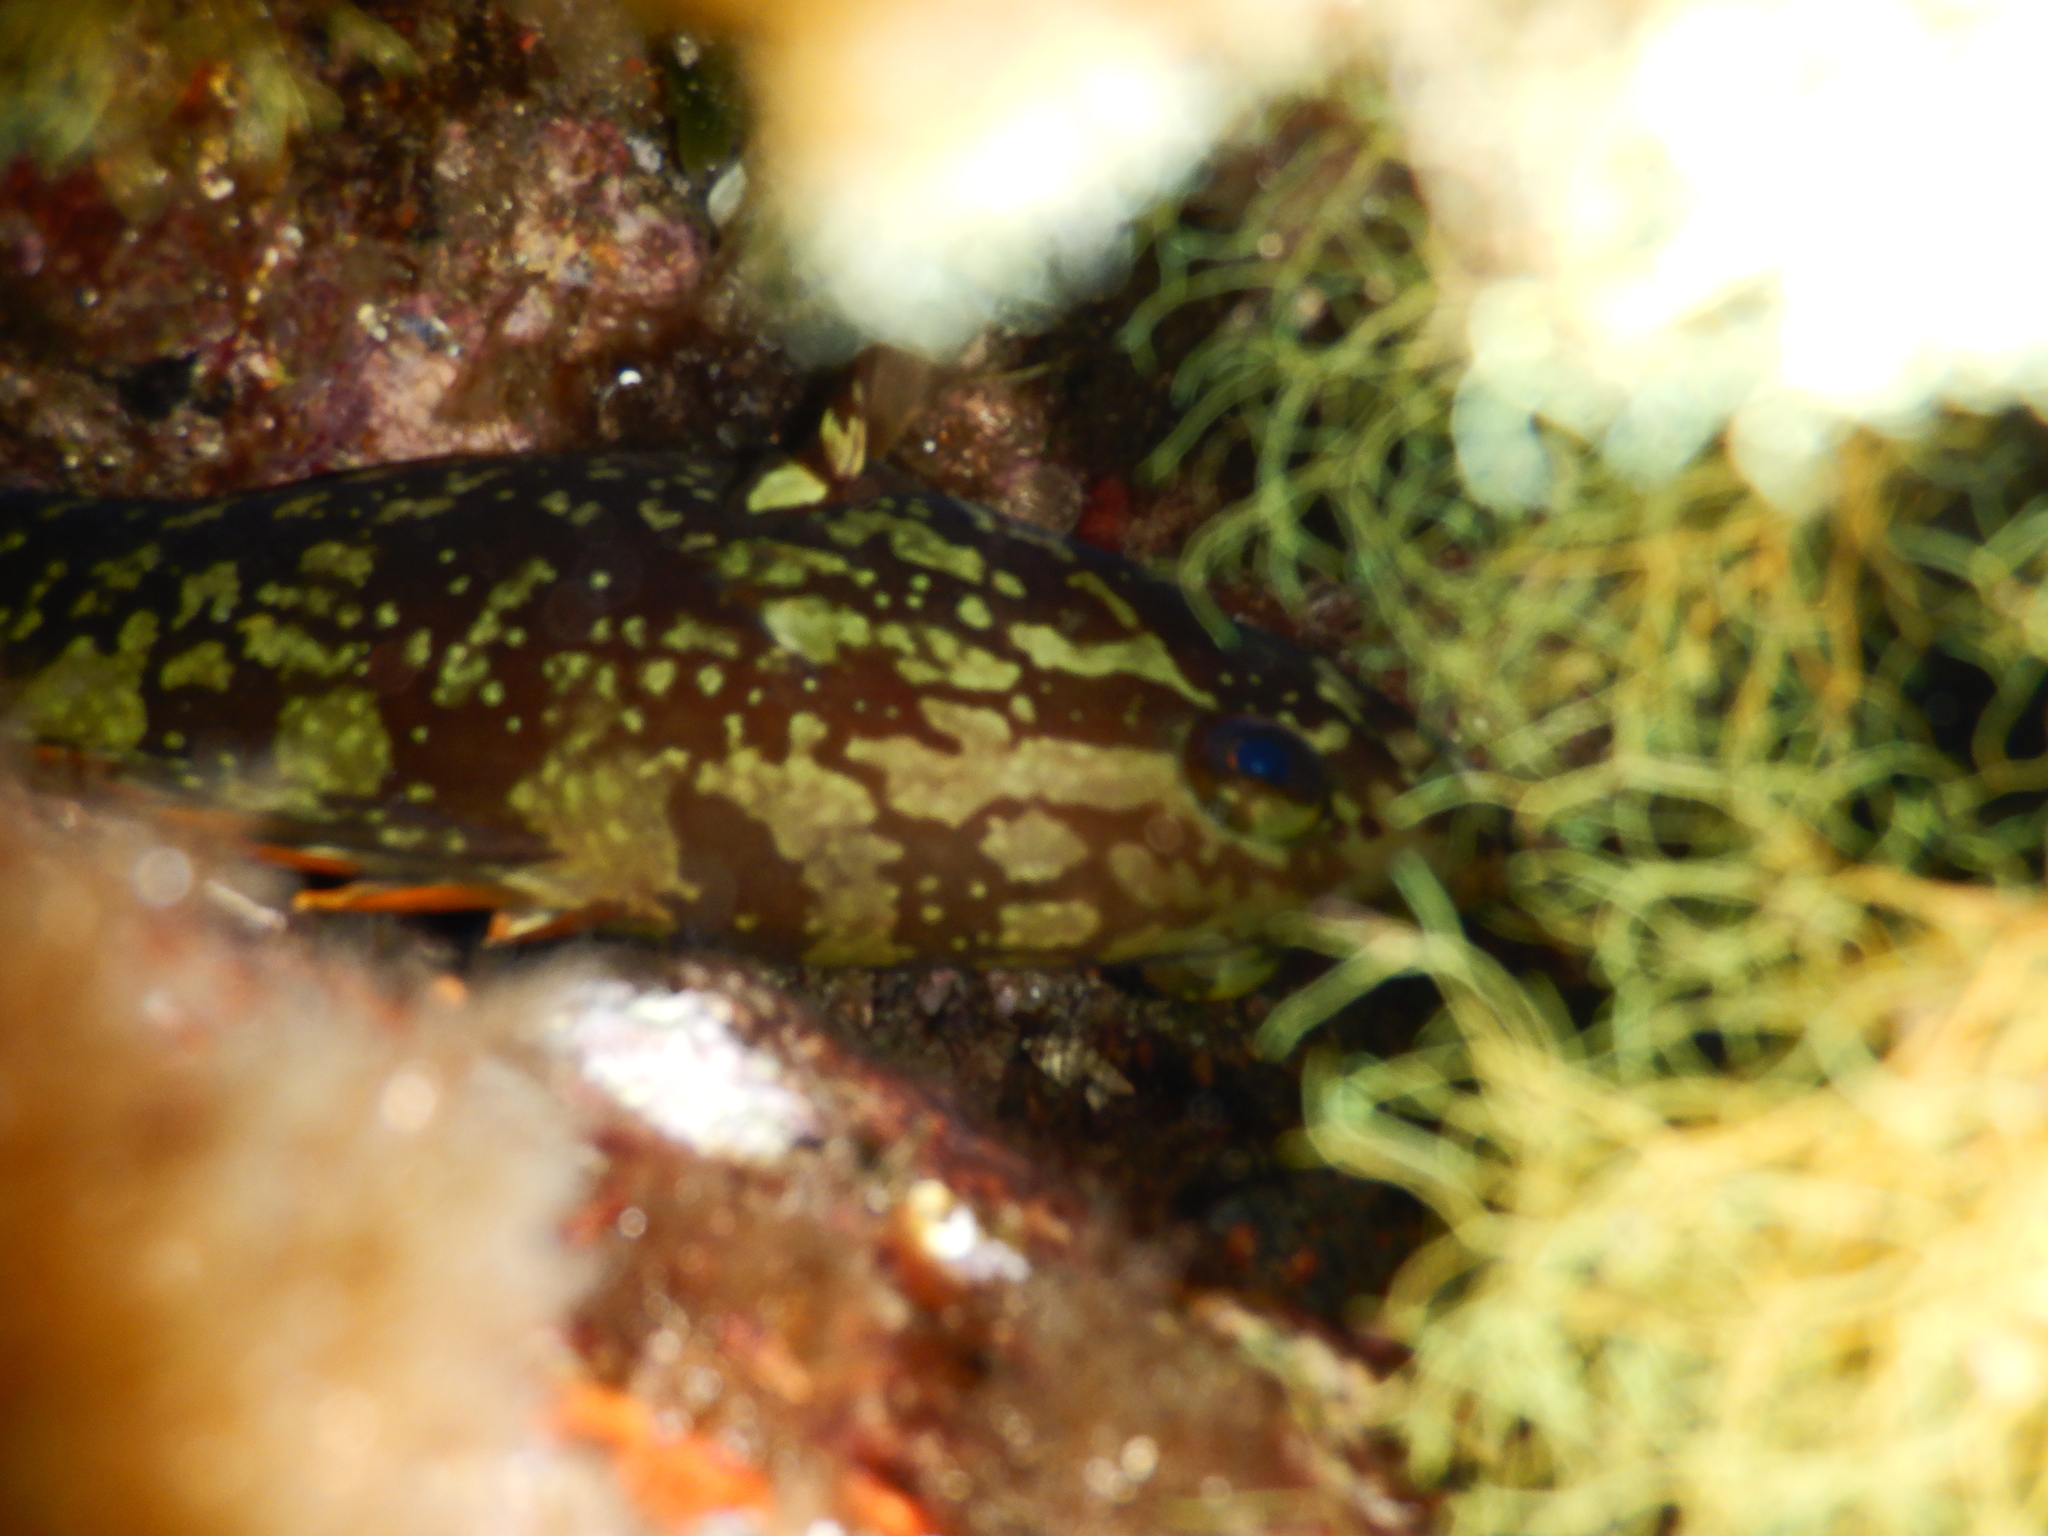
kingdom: Animalia
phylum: Chordata
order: Perciformes
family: Serranidae
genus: Epinephelus
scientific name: Epinephelus marginatus
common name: Dusky grouper
